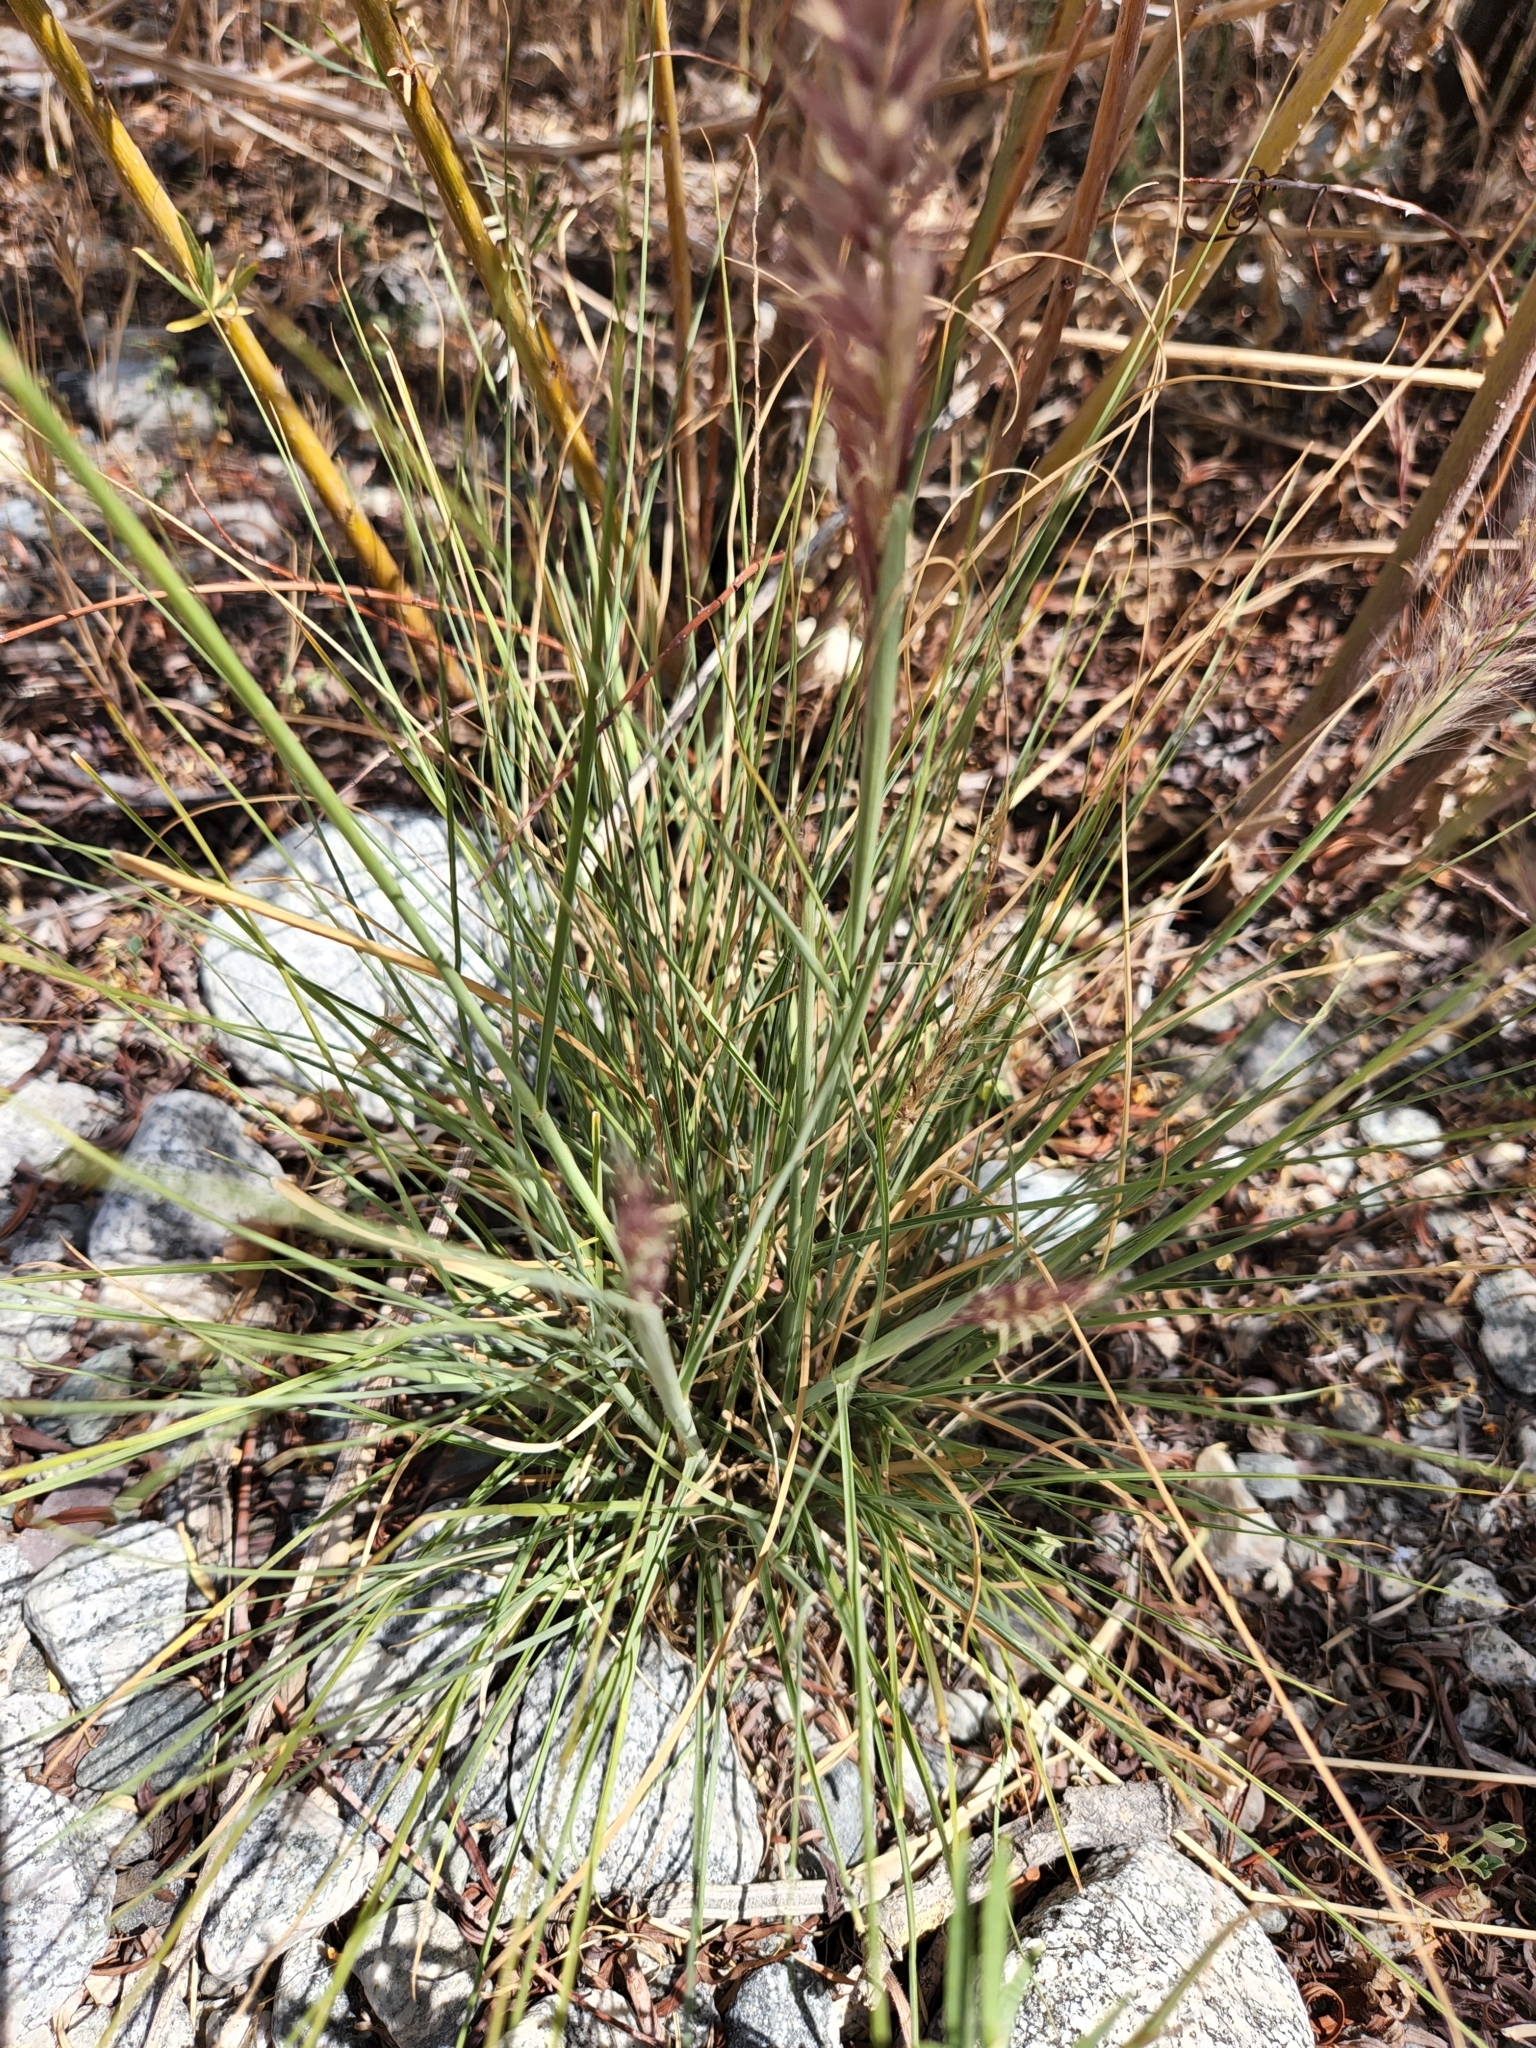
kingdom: Plantae
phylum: Tracheophyta
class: Liliopsida
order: Poales
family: Poaceae
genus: Cenchrus
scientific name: Cenchrus setaceus
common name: Crimson fountaingrass
